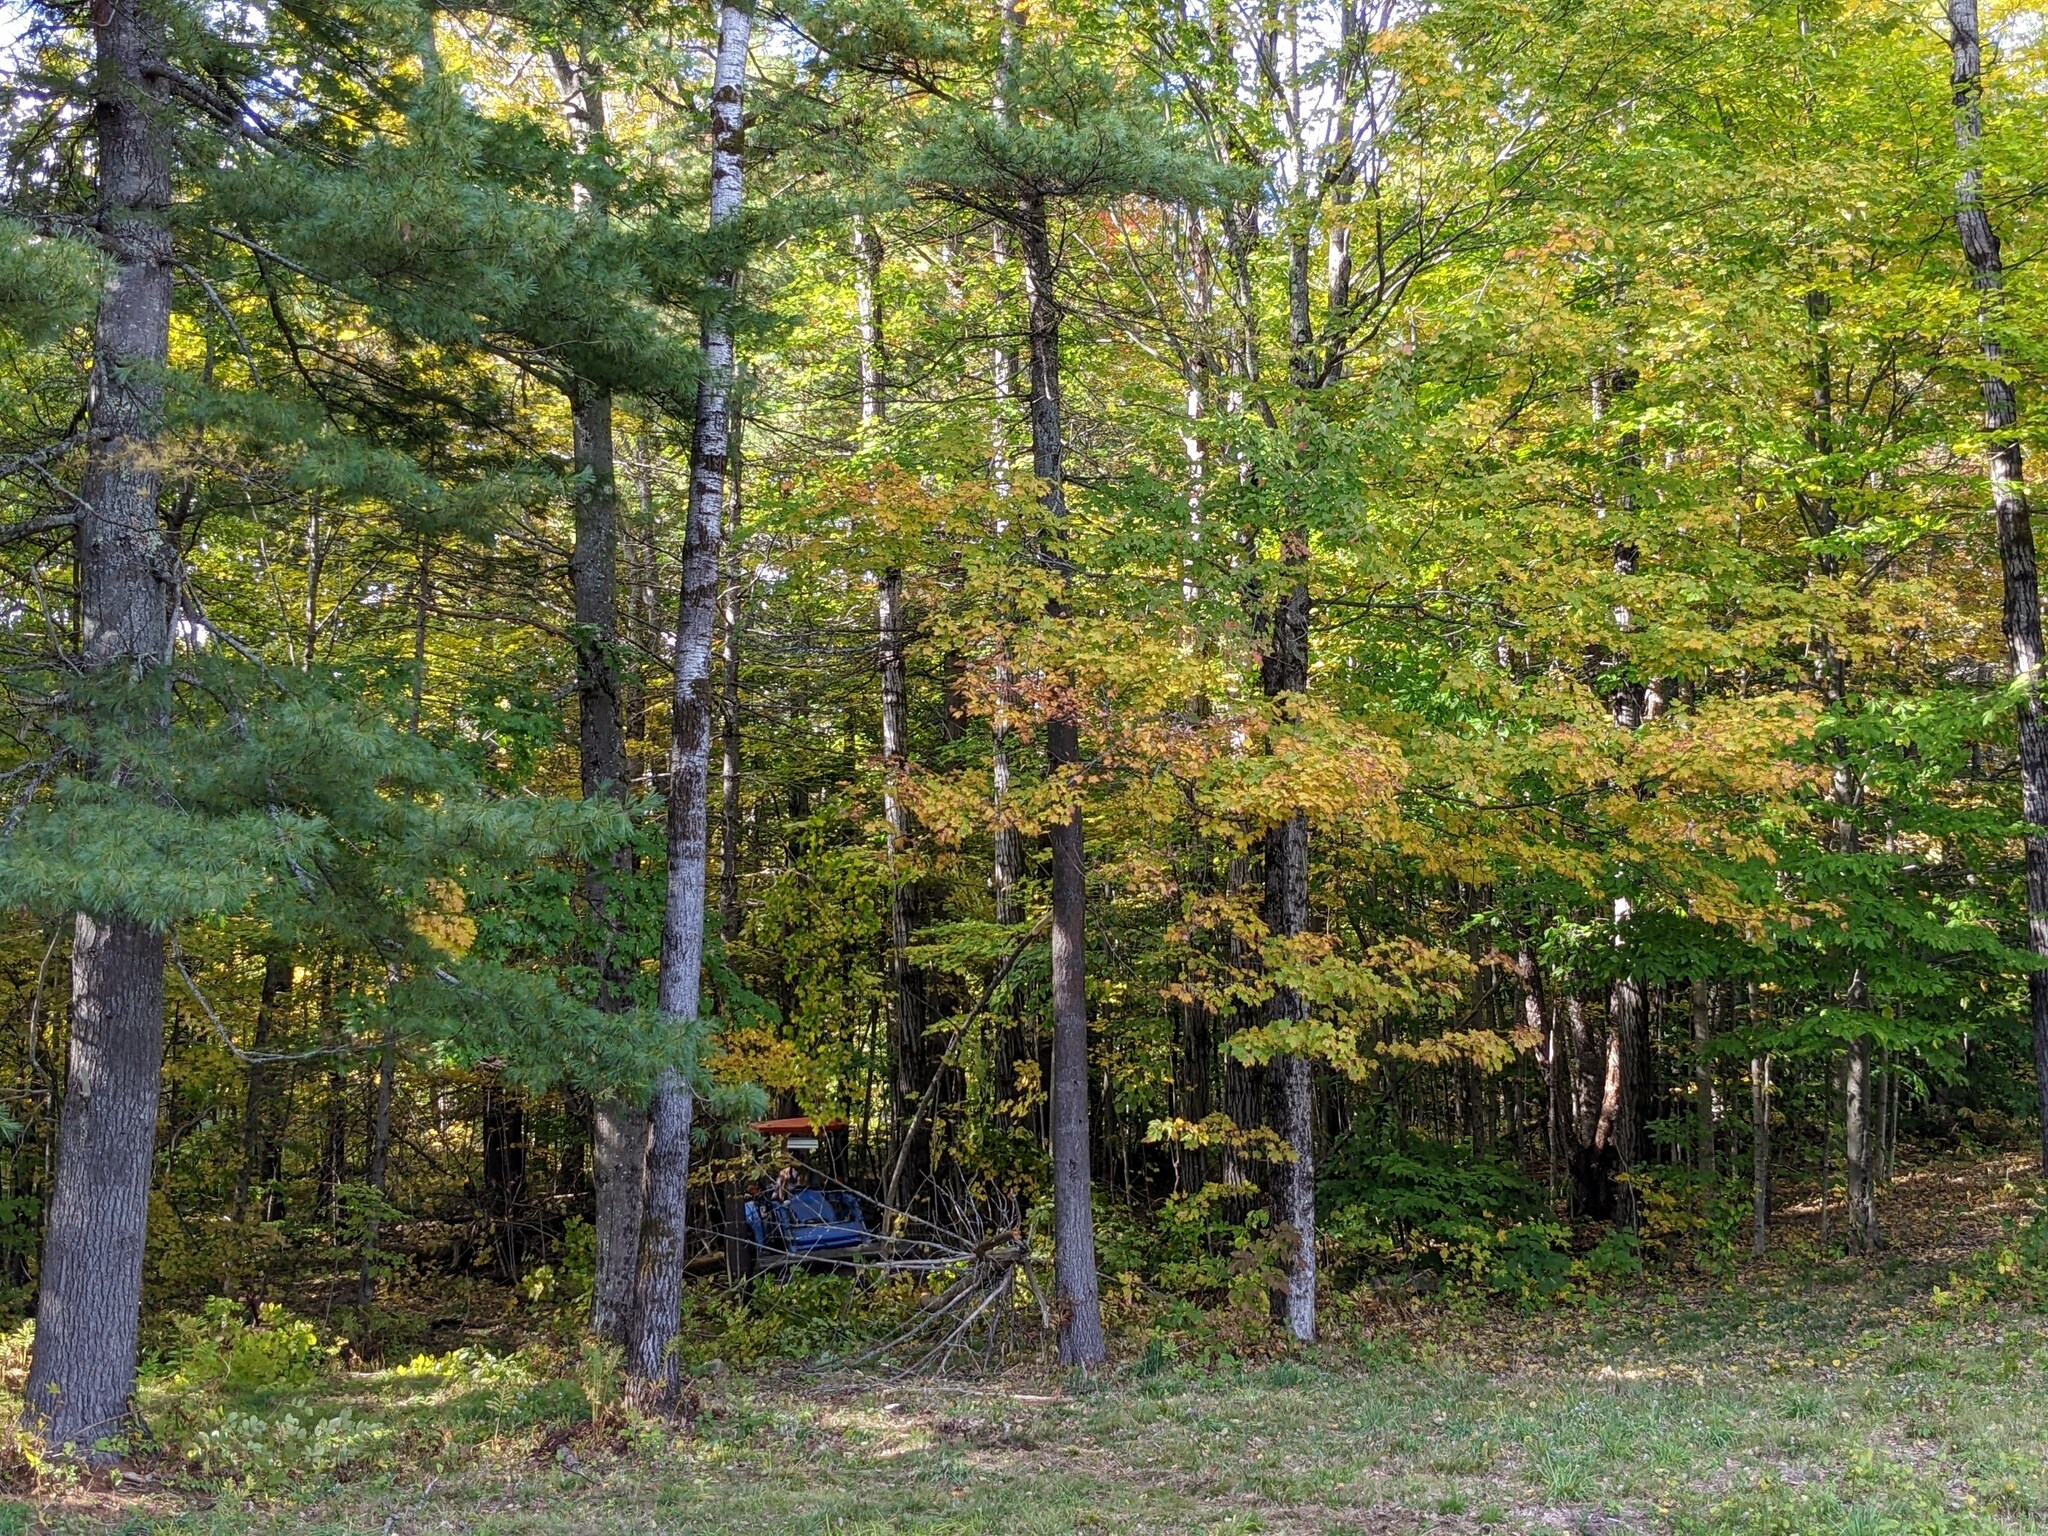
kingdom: Plantae
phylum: Tracheophyta
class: Pinopsida
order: Pinales
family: Pinaceae
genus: Pinus
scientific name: Pinus strobus
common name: Weymouth pine
